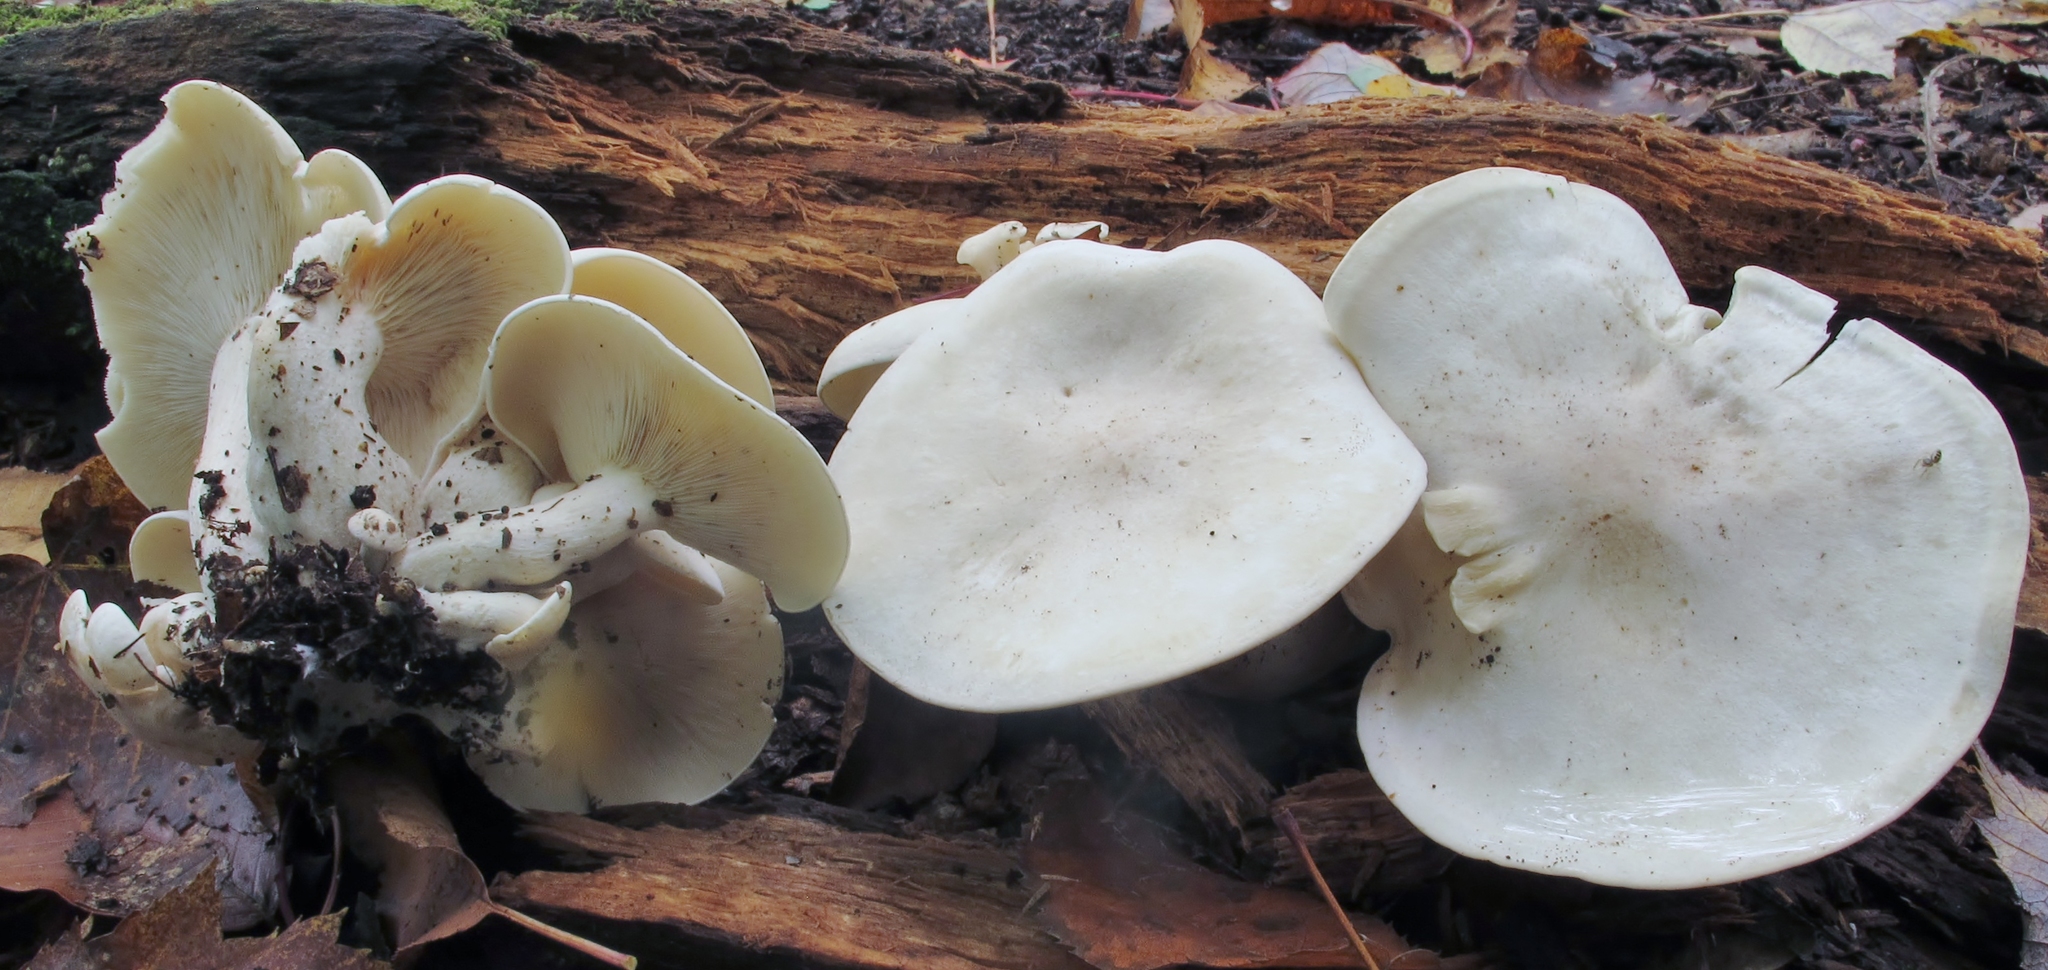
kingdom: Fungi
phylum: Basidiomycota
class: Agaricomycetes
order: Agaricales
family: Tricholomataceae
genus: Lepista
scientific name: Lepista subconnexa
